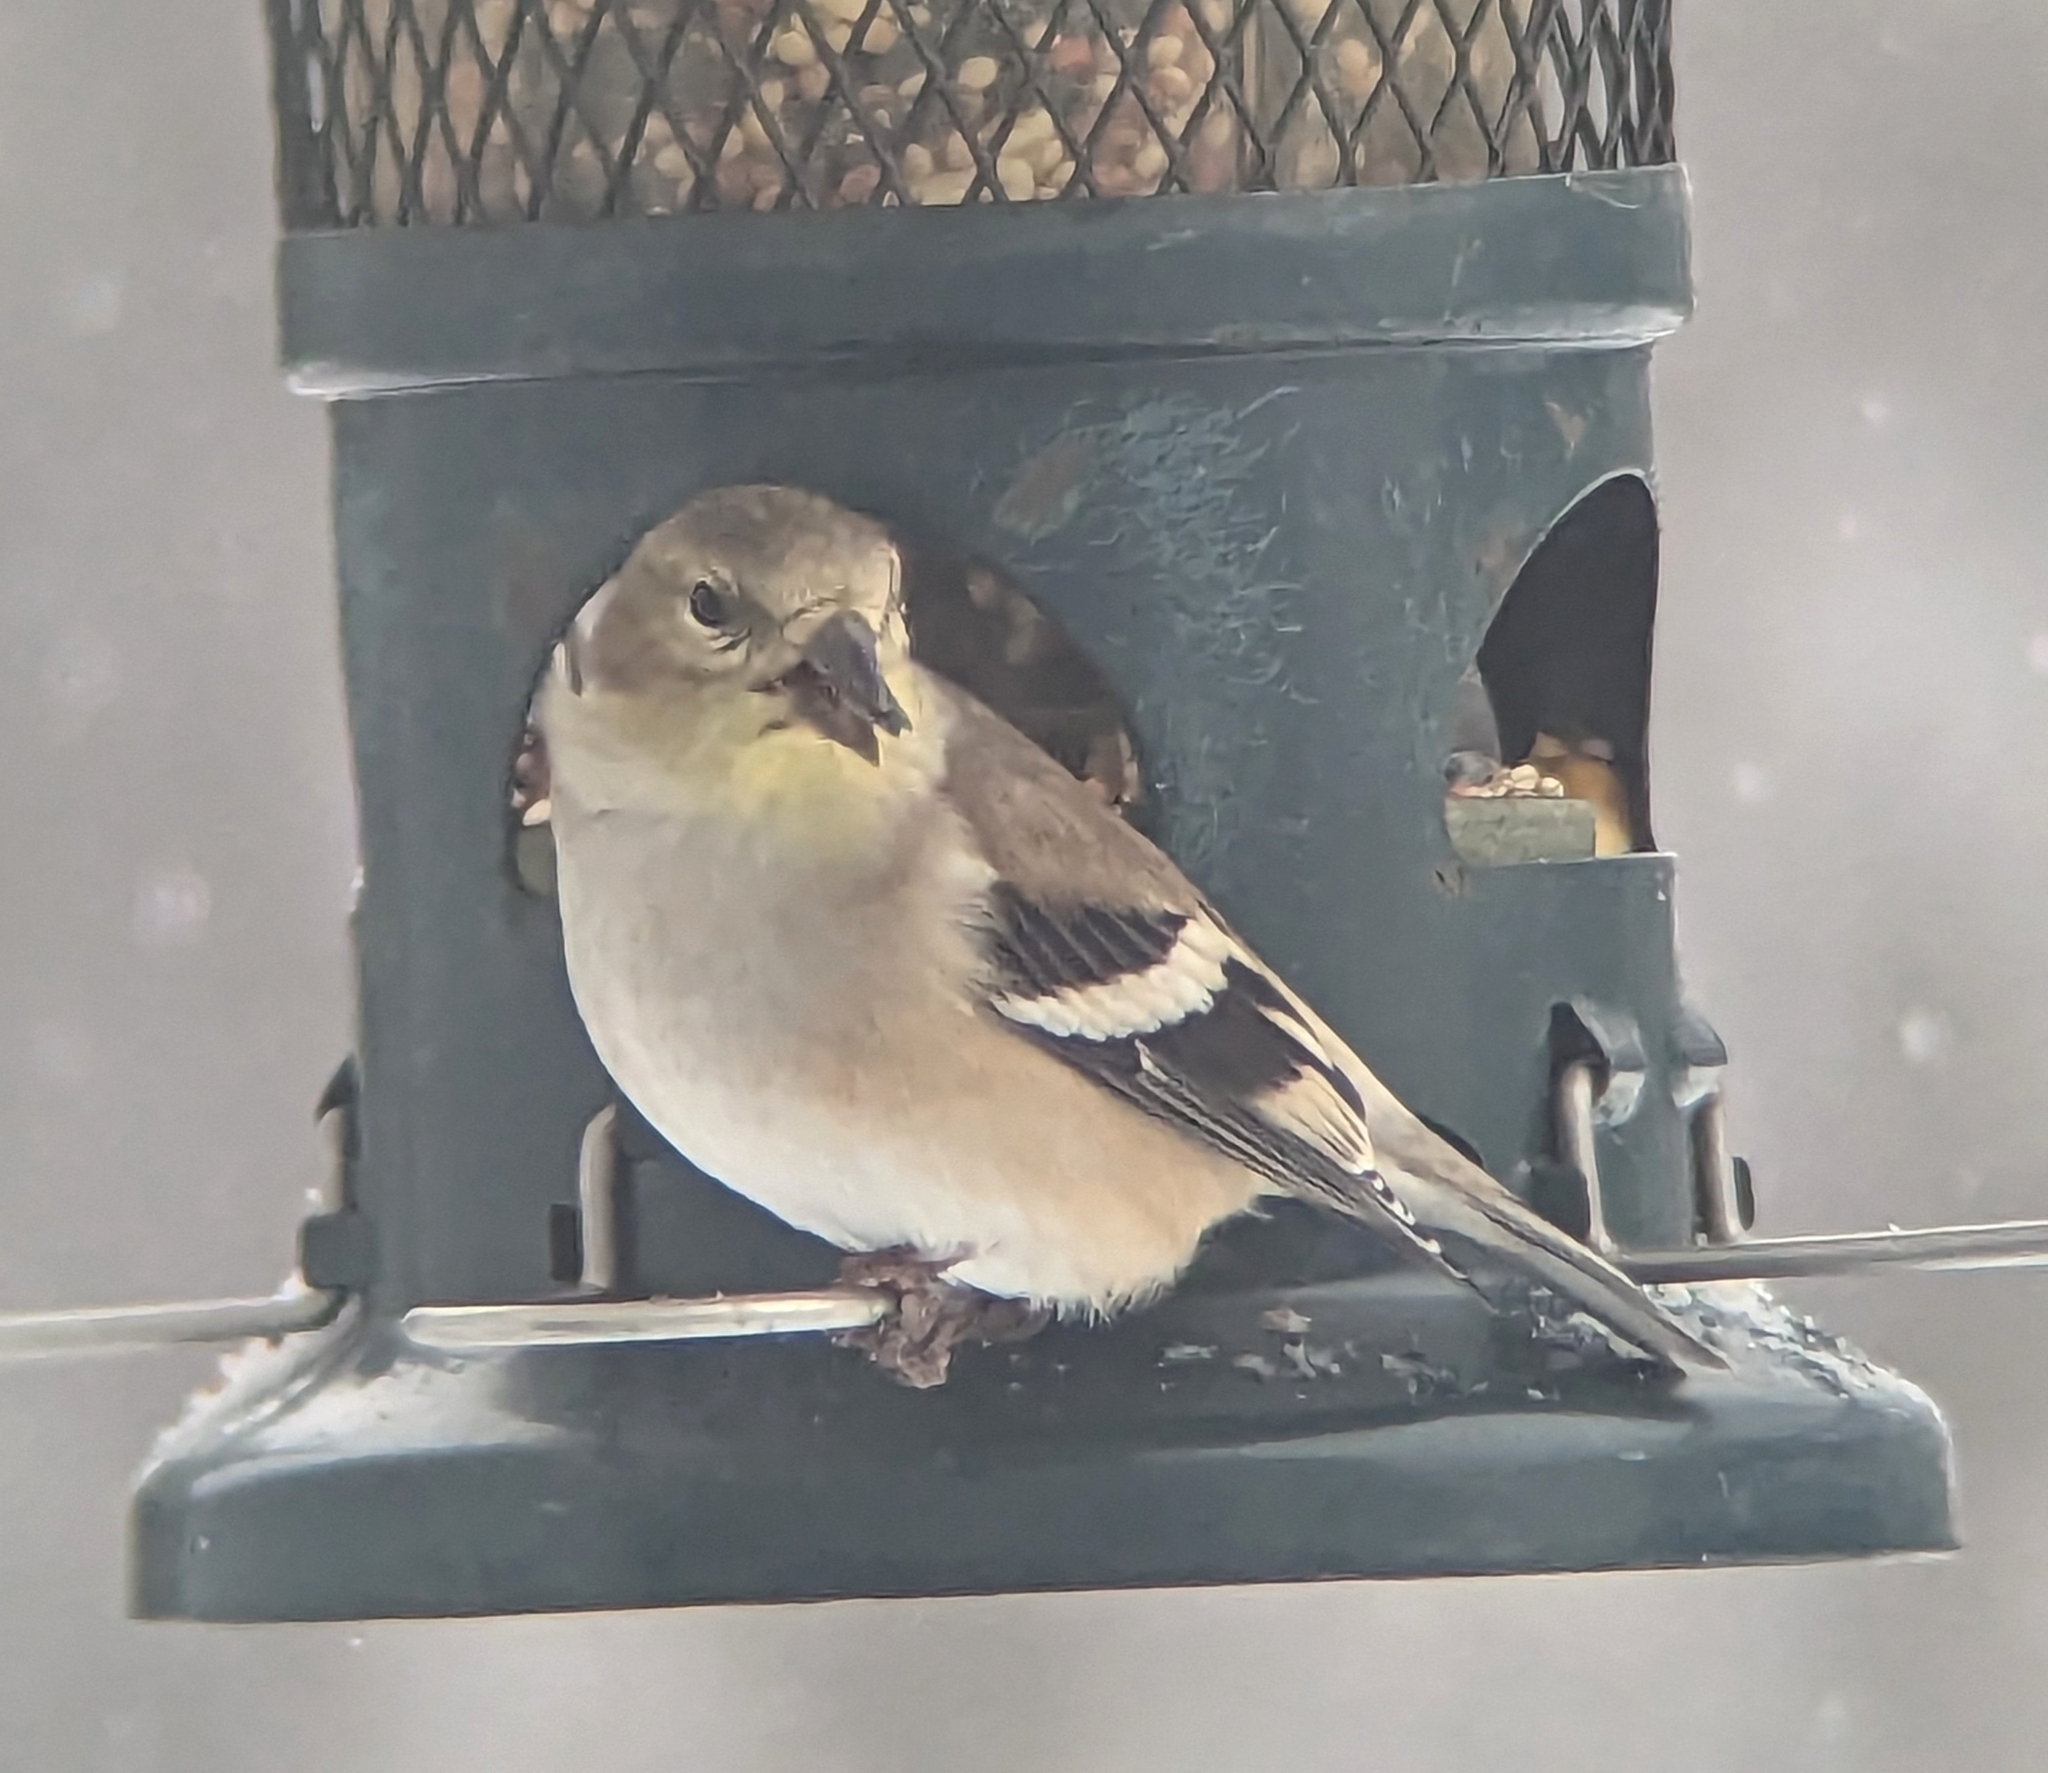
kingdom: Animalia
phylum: Chordata
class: Aves
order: Passeriformes
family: Fringillidae
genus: Spinus
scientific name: Spinus tristis
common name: American goldfinch
